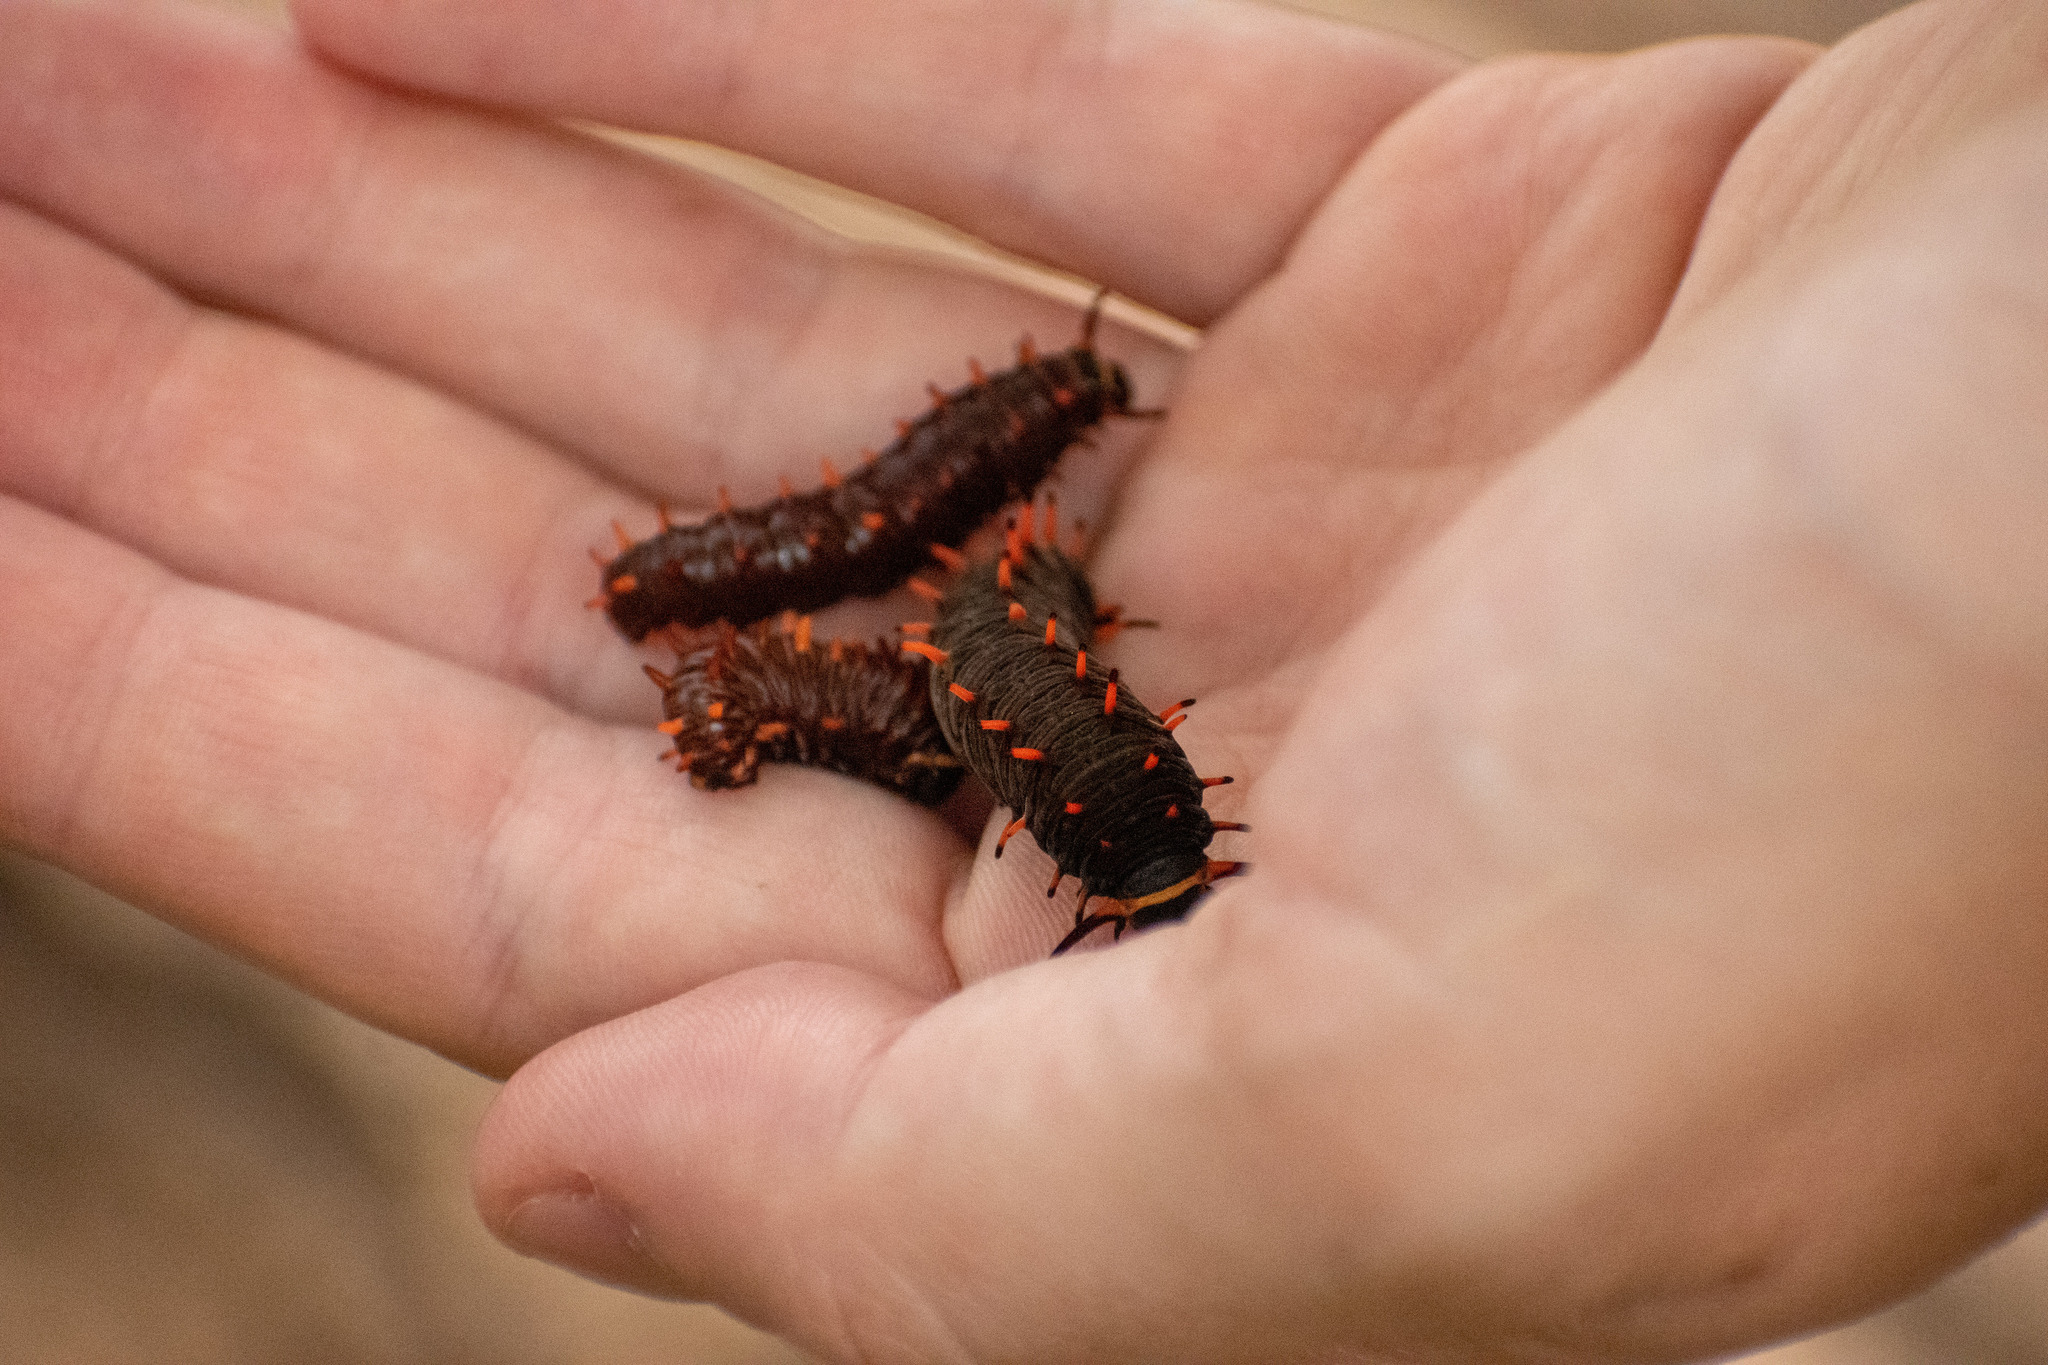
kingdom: Animalia
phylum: Arthropoda
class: Insecta
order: Lepidoptera
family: Papilionidae
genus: Battus
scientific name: Battus polydamas
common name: Polydamas swallowtail
